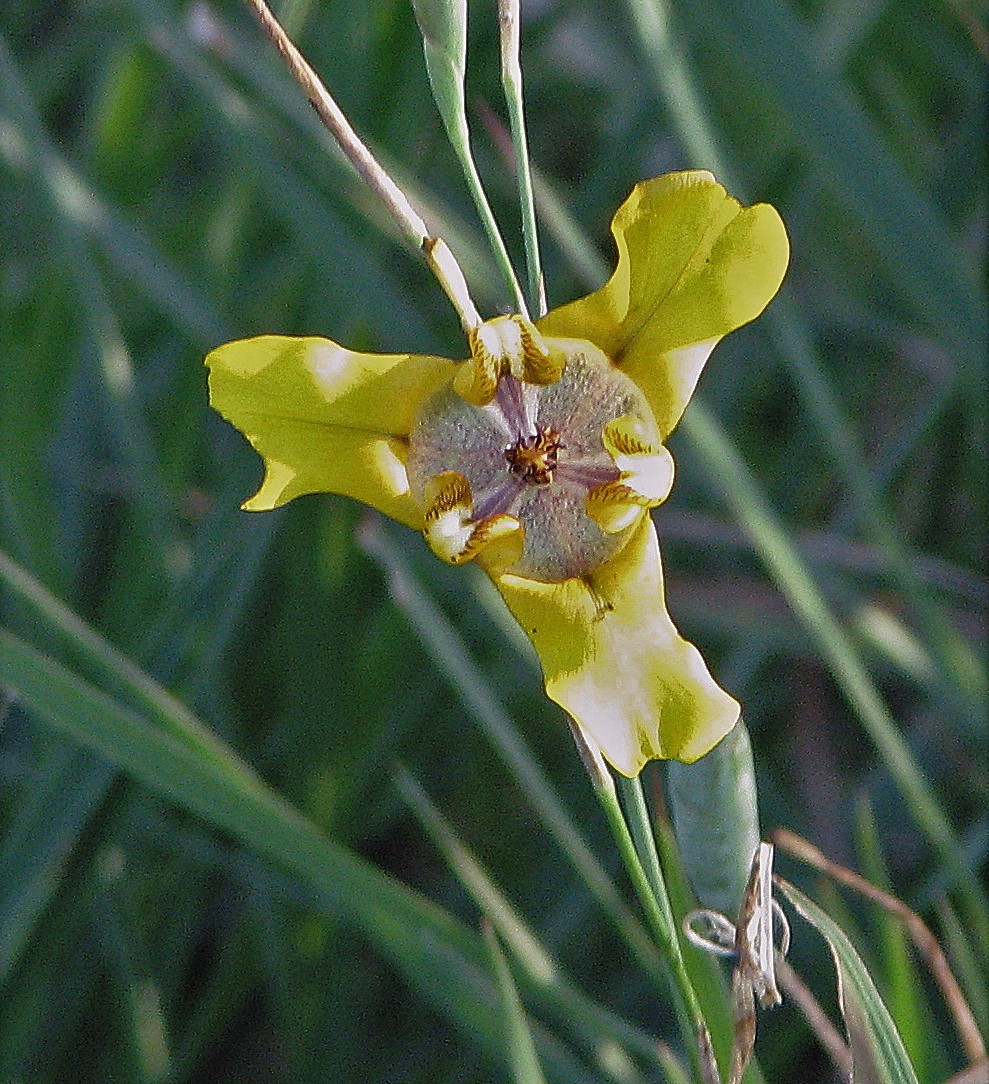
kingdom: Plantae
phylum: Tracheophyta
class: Liliopsida
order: Asparagales
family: Iridaceae
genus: Cypella
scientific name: Cypella herbertii
